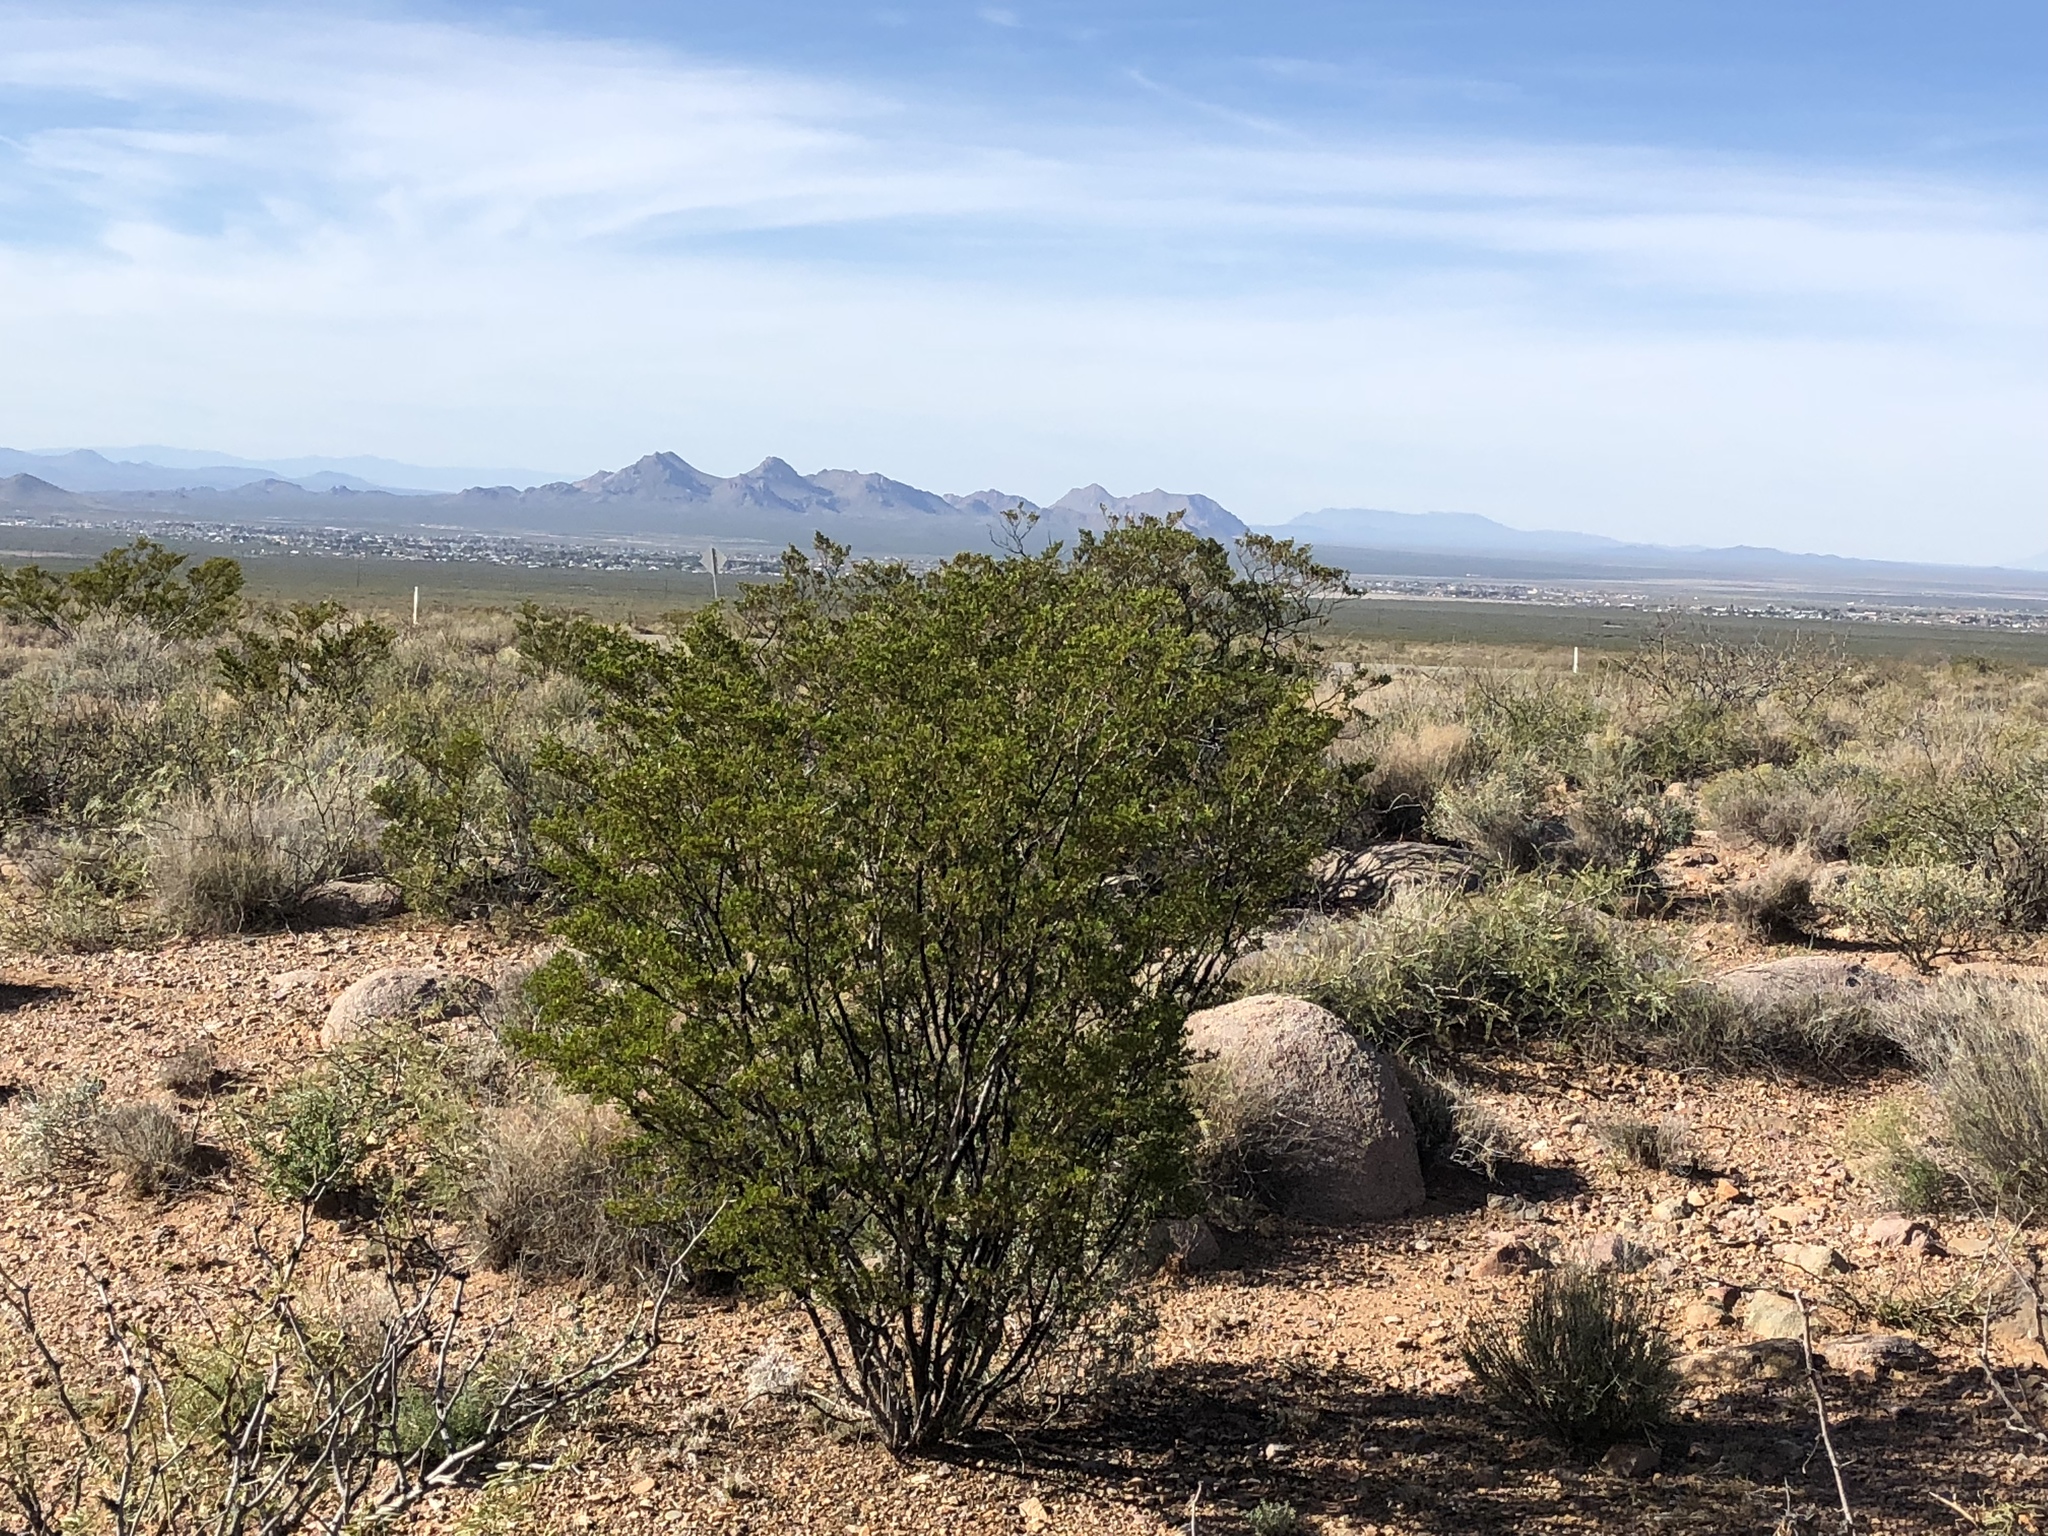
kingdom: Plantae
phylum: Tracheophyta
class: Magnoliopsida
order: Zygophyllales
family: Zygophyllaceae
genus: Larrea
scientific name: Larrea tridentata
